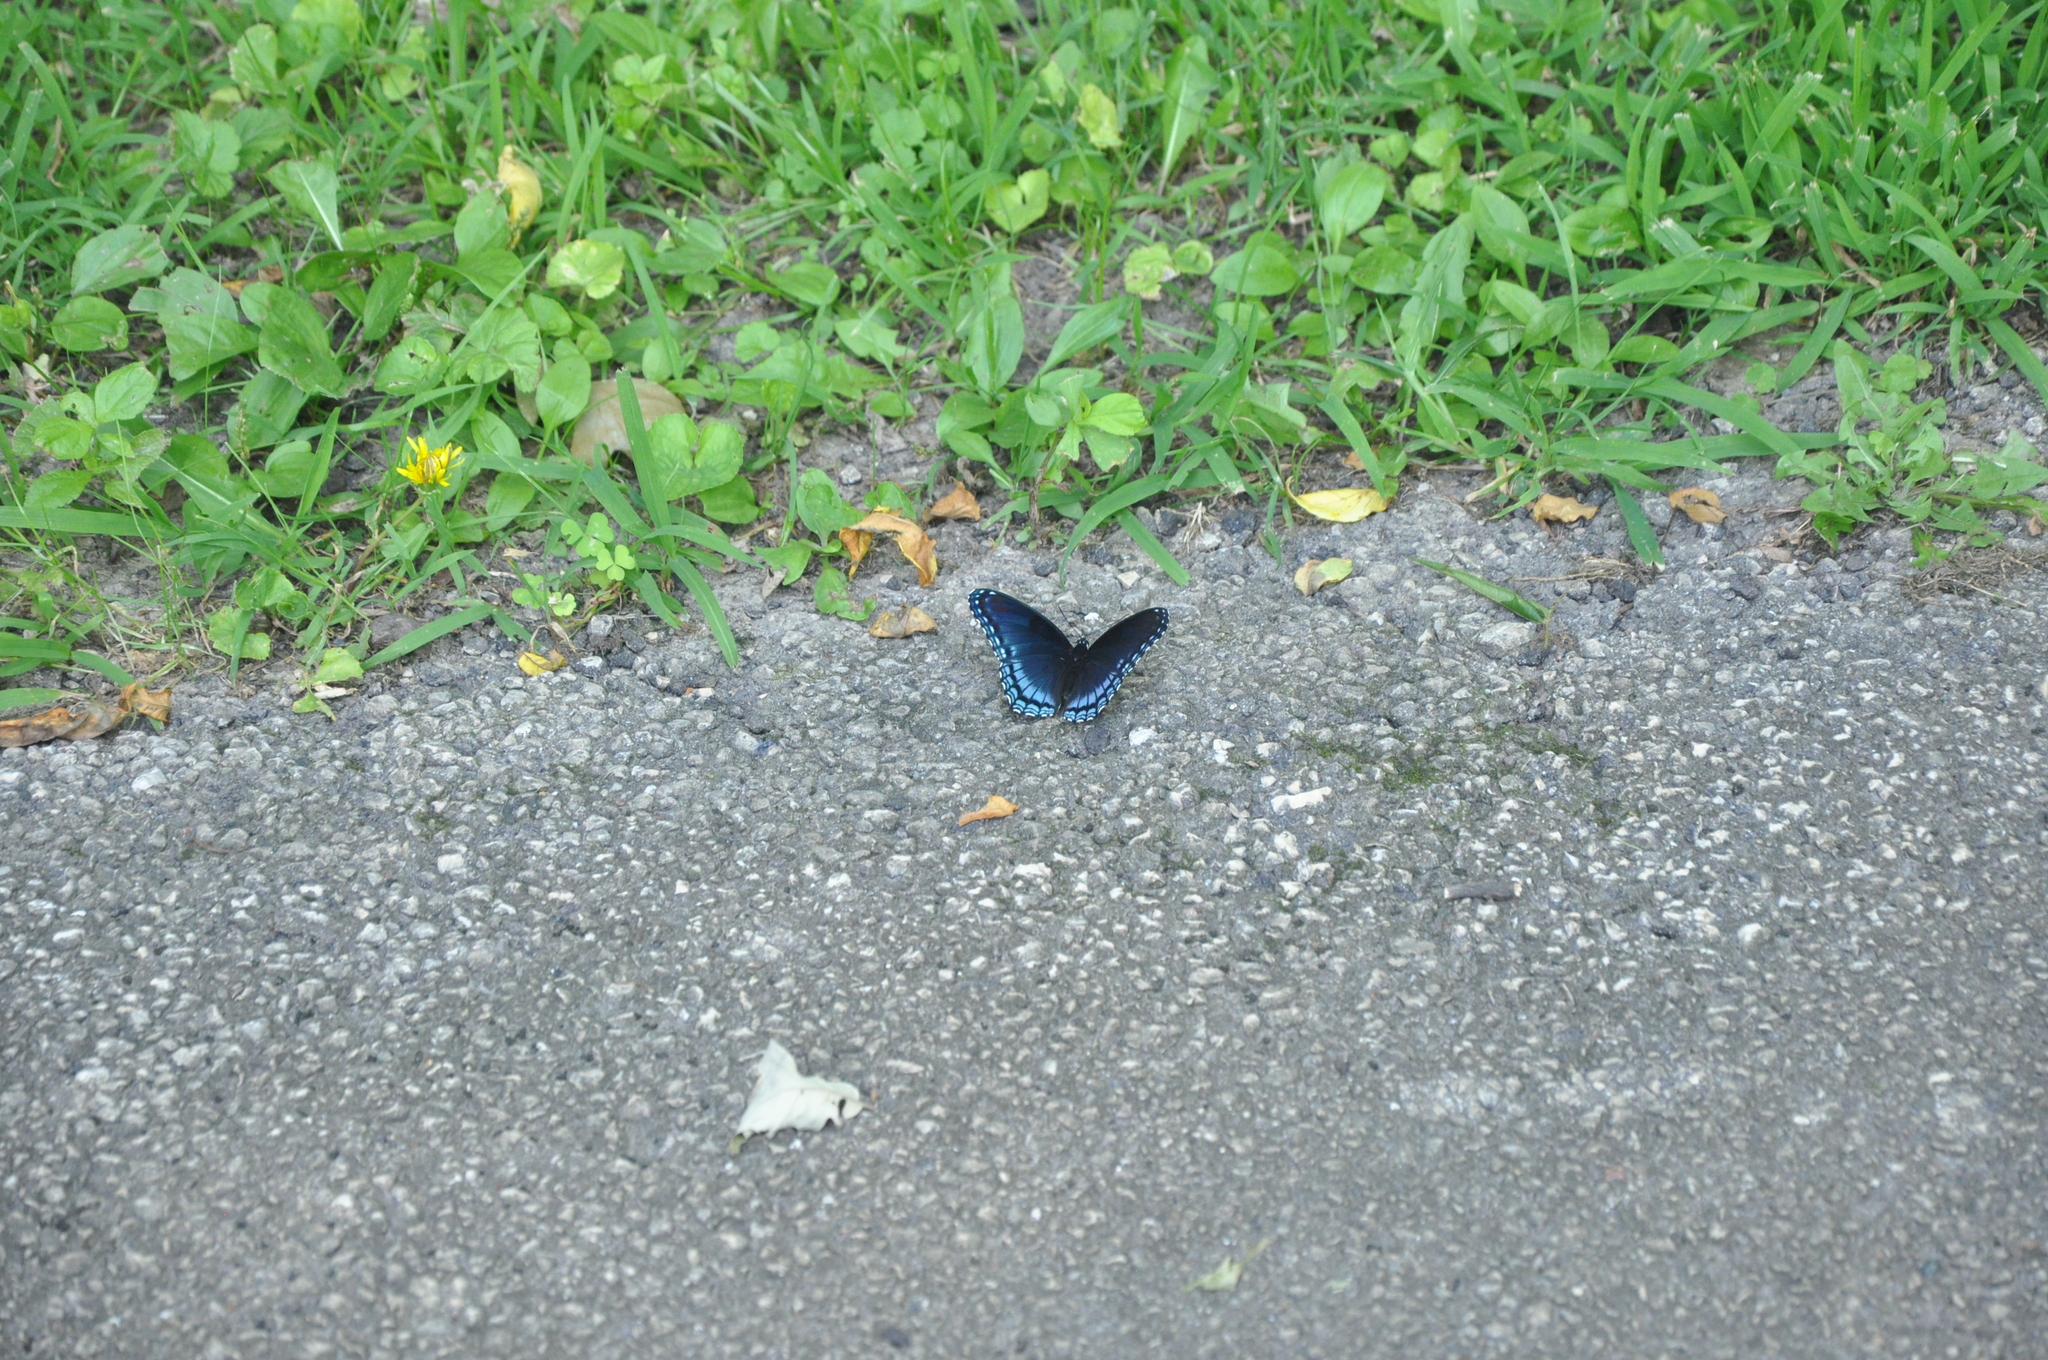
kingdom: Animalia
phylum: Arthropoda
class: Insecta
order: Lepidoptera
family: Nymphalidae
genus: Limenitis
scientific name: Limenitis astyanax
